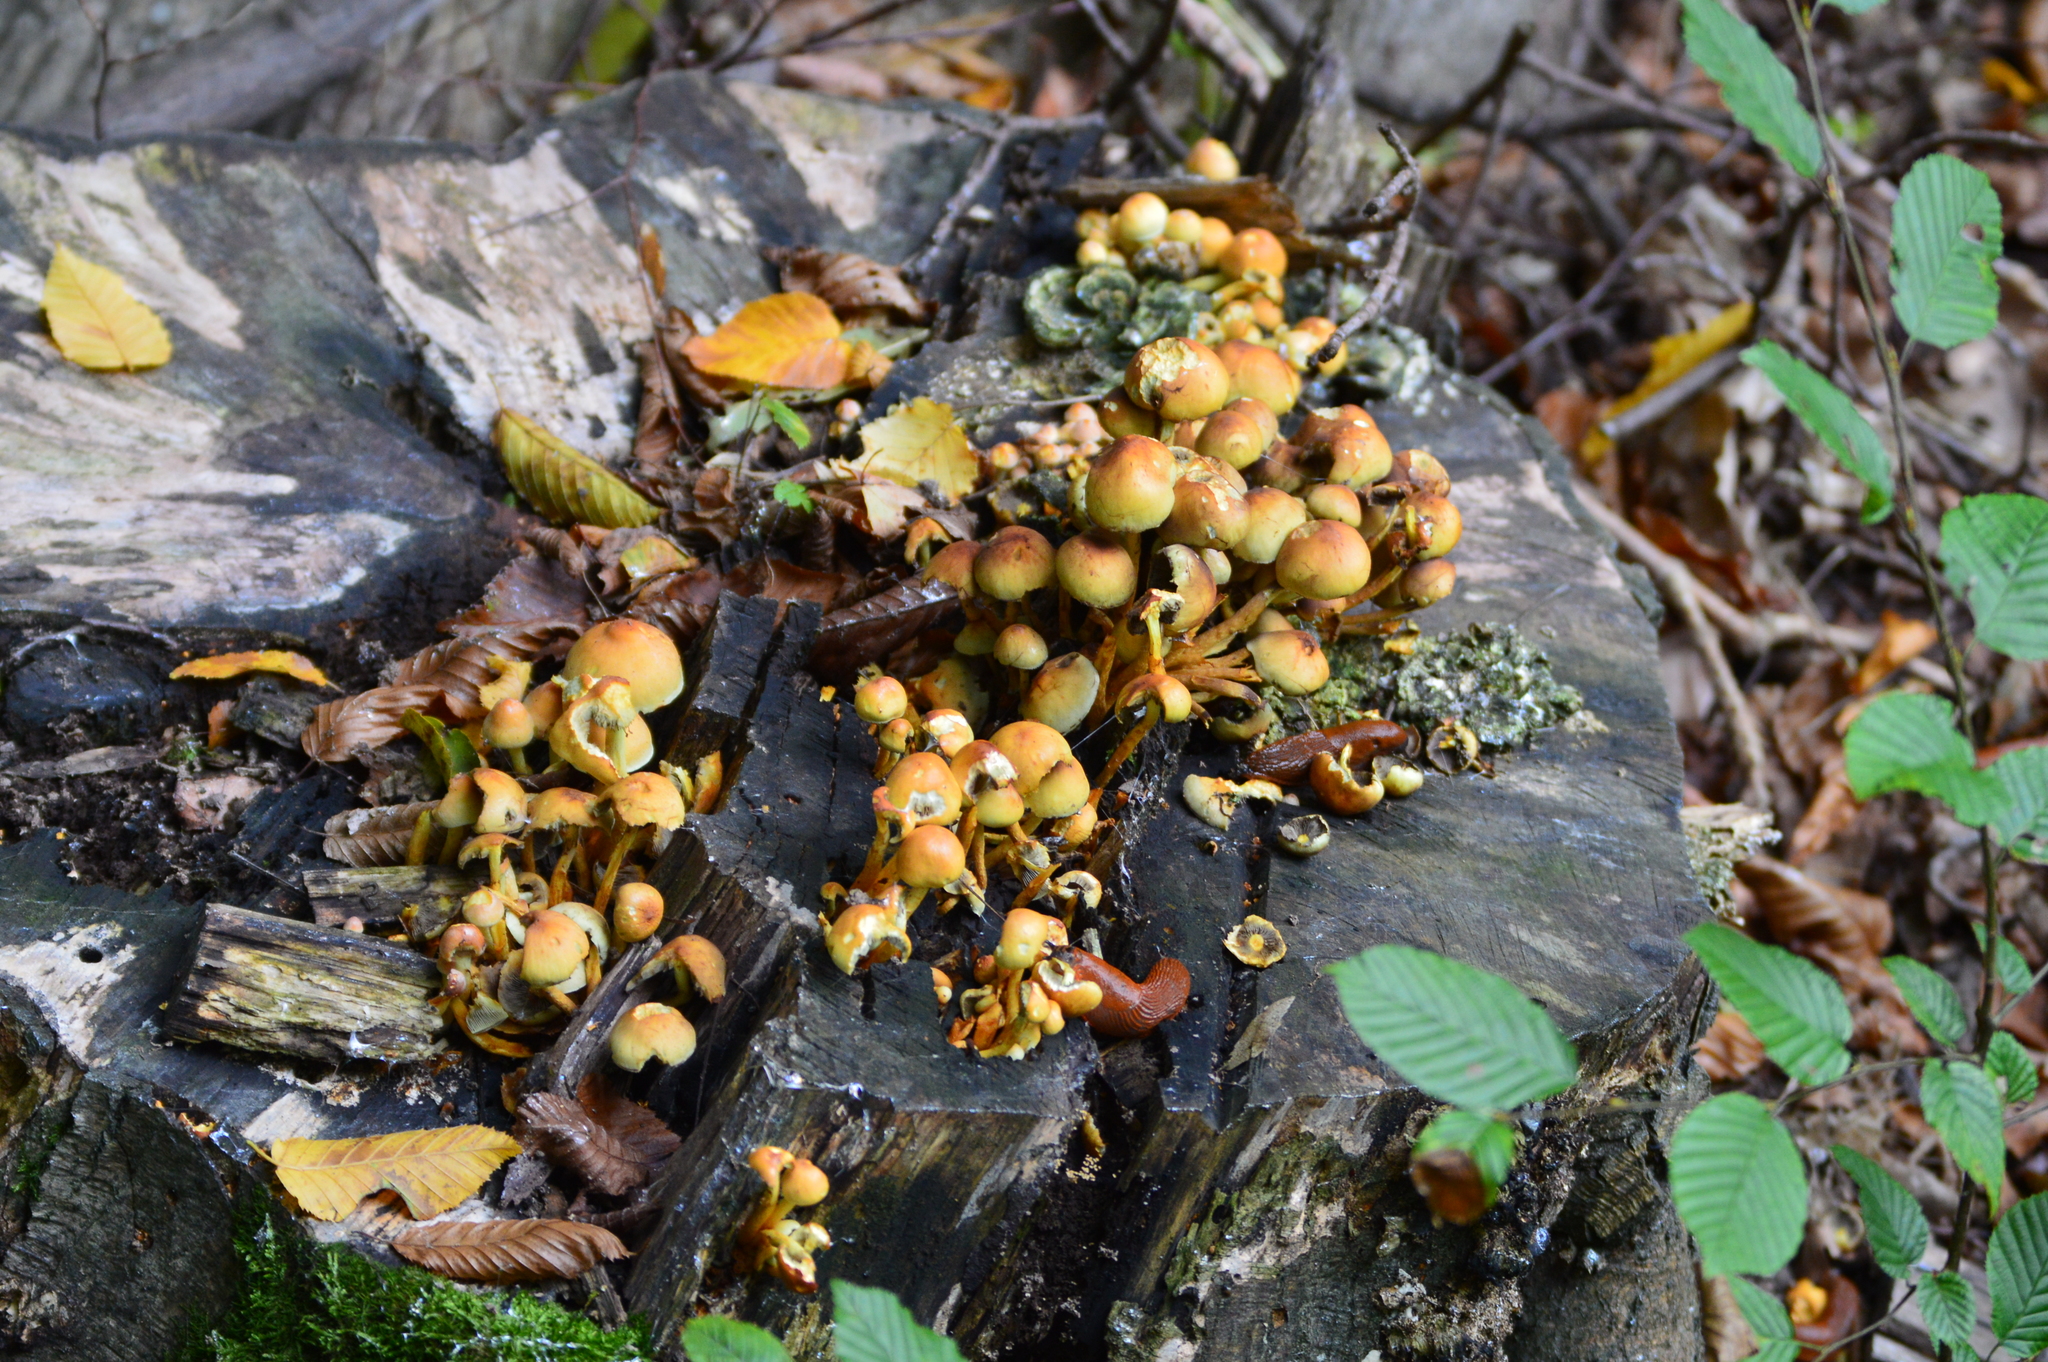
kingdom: Fungi
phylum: Basidiomycota
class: Agaricomycetes
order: Agaricales
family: Strophariaceae
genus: Hypholoma
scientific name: Hypholoma fasciculare
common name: Sulphur tuft
